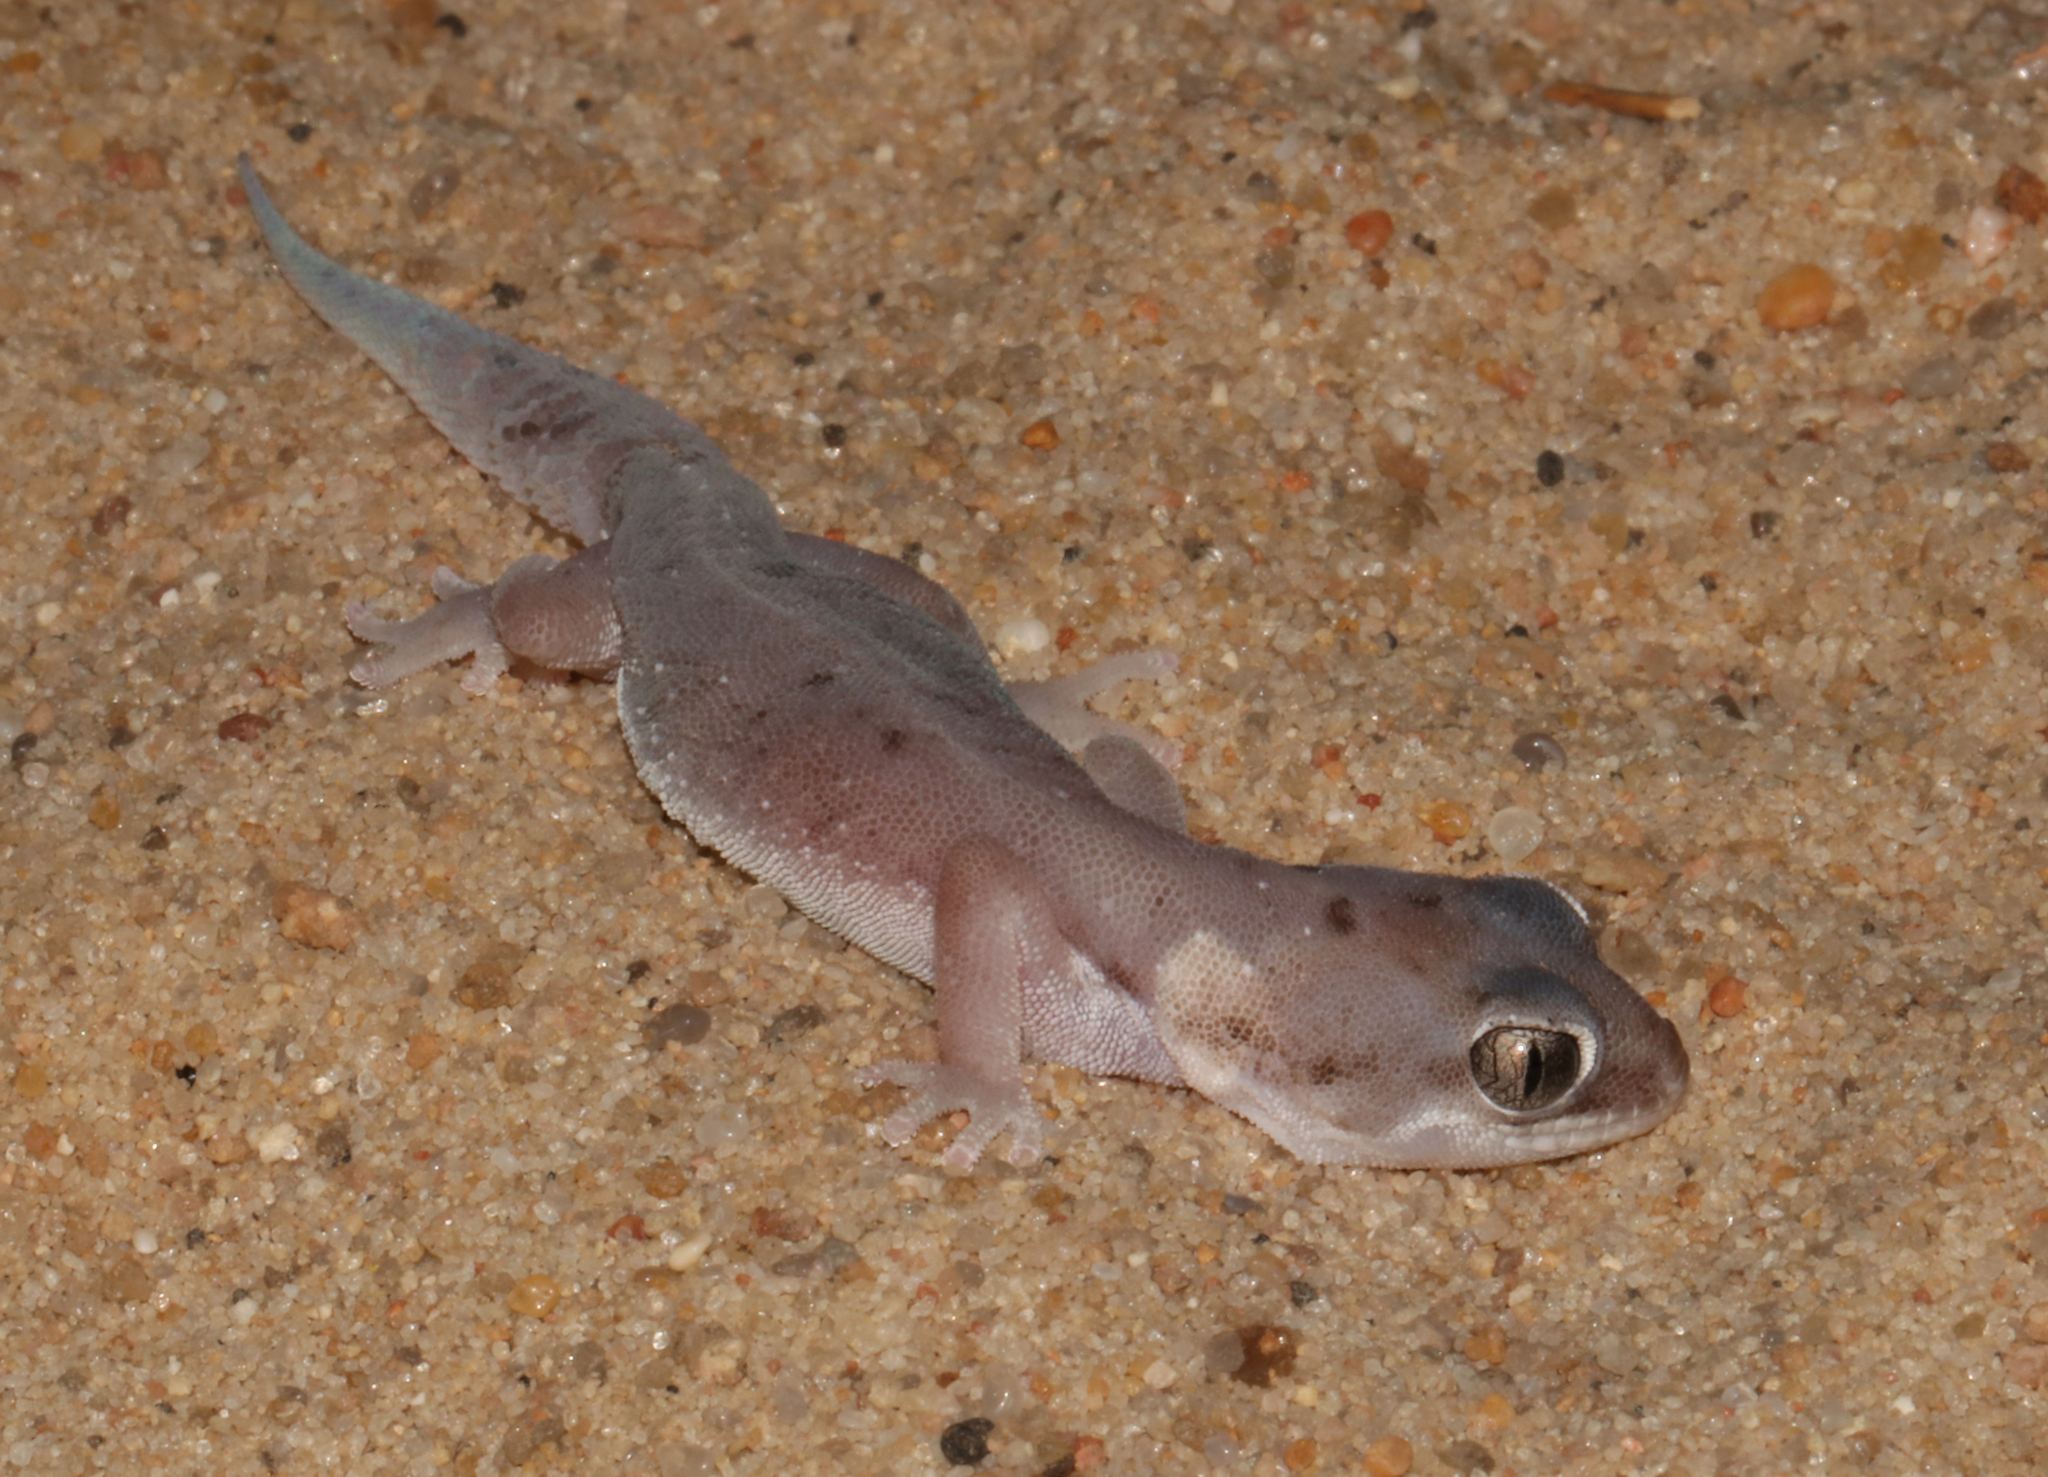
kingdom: Animalia
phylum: Chordata
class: Squamata
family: Gekkonidae
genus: Pachydactylus
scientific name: Pachydactylus austeni
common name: Austen's gecko
